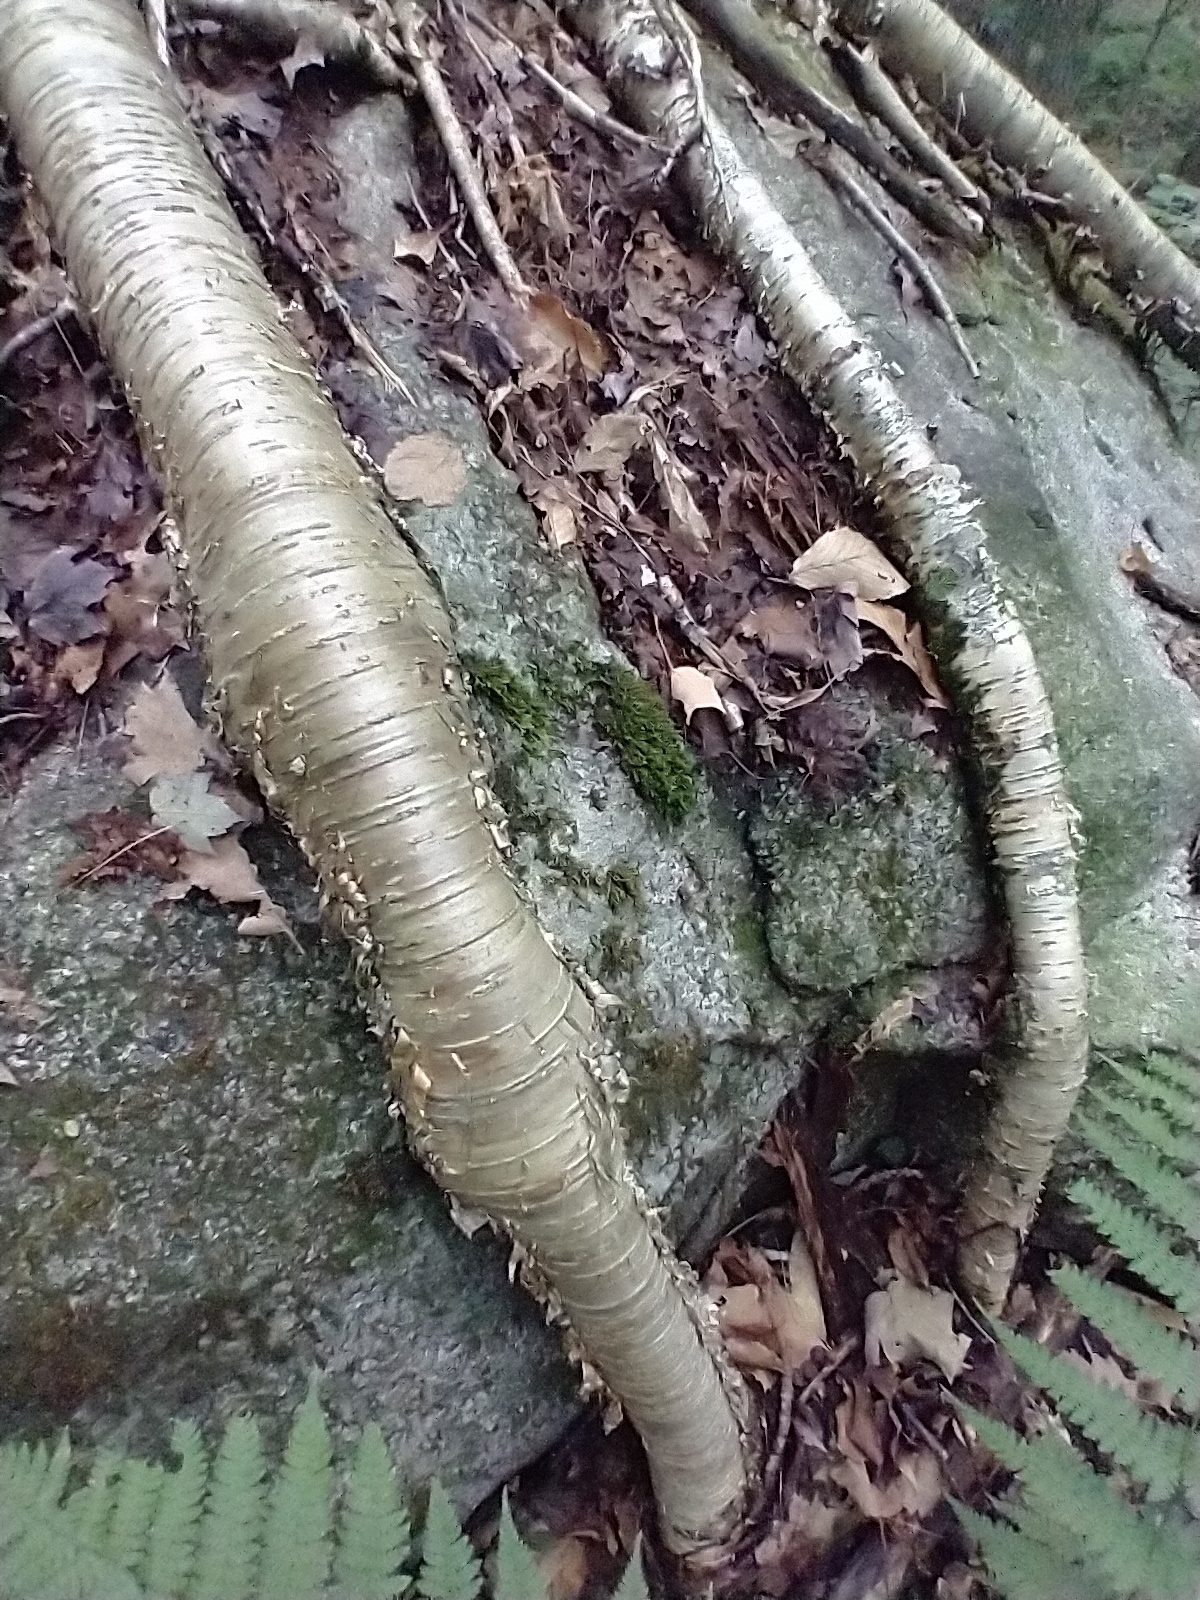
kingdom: Plantae
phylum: Tracheophyta
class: Magnoliopsida
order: Fagales
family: Betulaceae
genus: Betula
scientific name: Betula alleghaniensis
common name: Yellow birch
